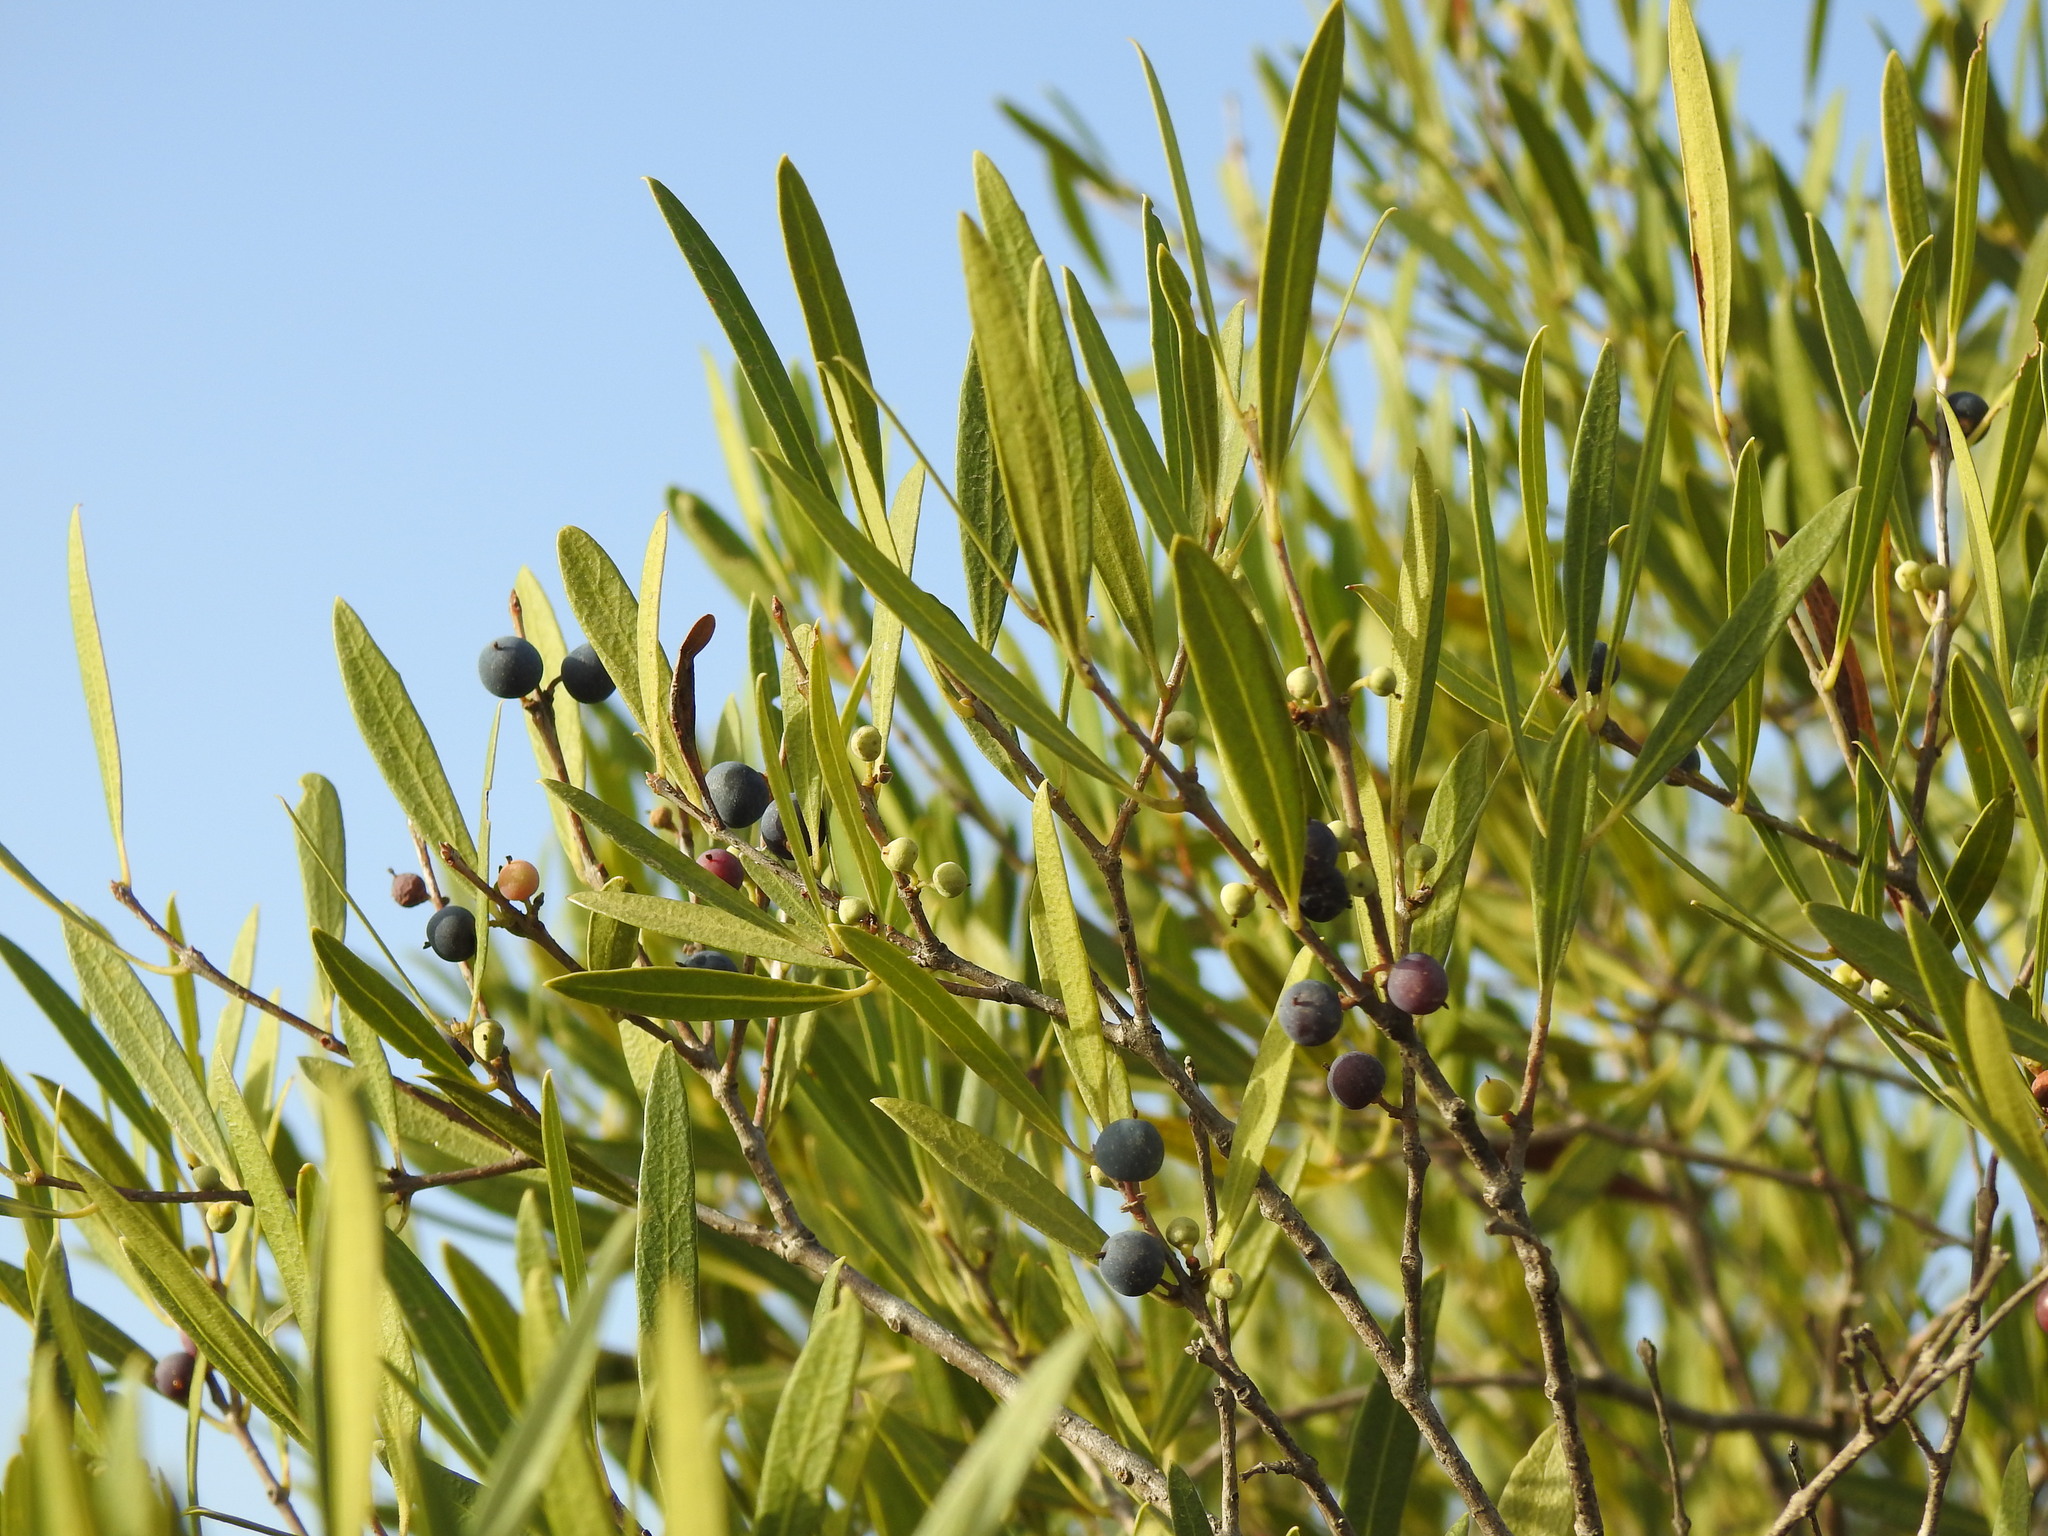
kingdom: Plantae
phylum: Tracheophyta
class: Magnoliopsida
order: Lamiales
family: Oleaceae
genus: Phillyrea
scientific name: Phillyrea angustifolia
